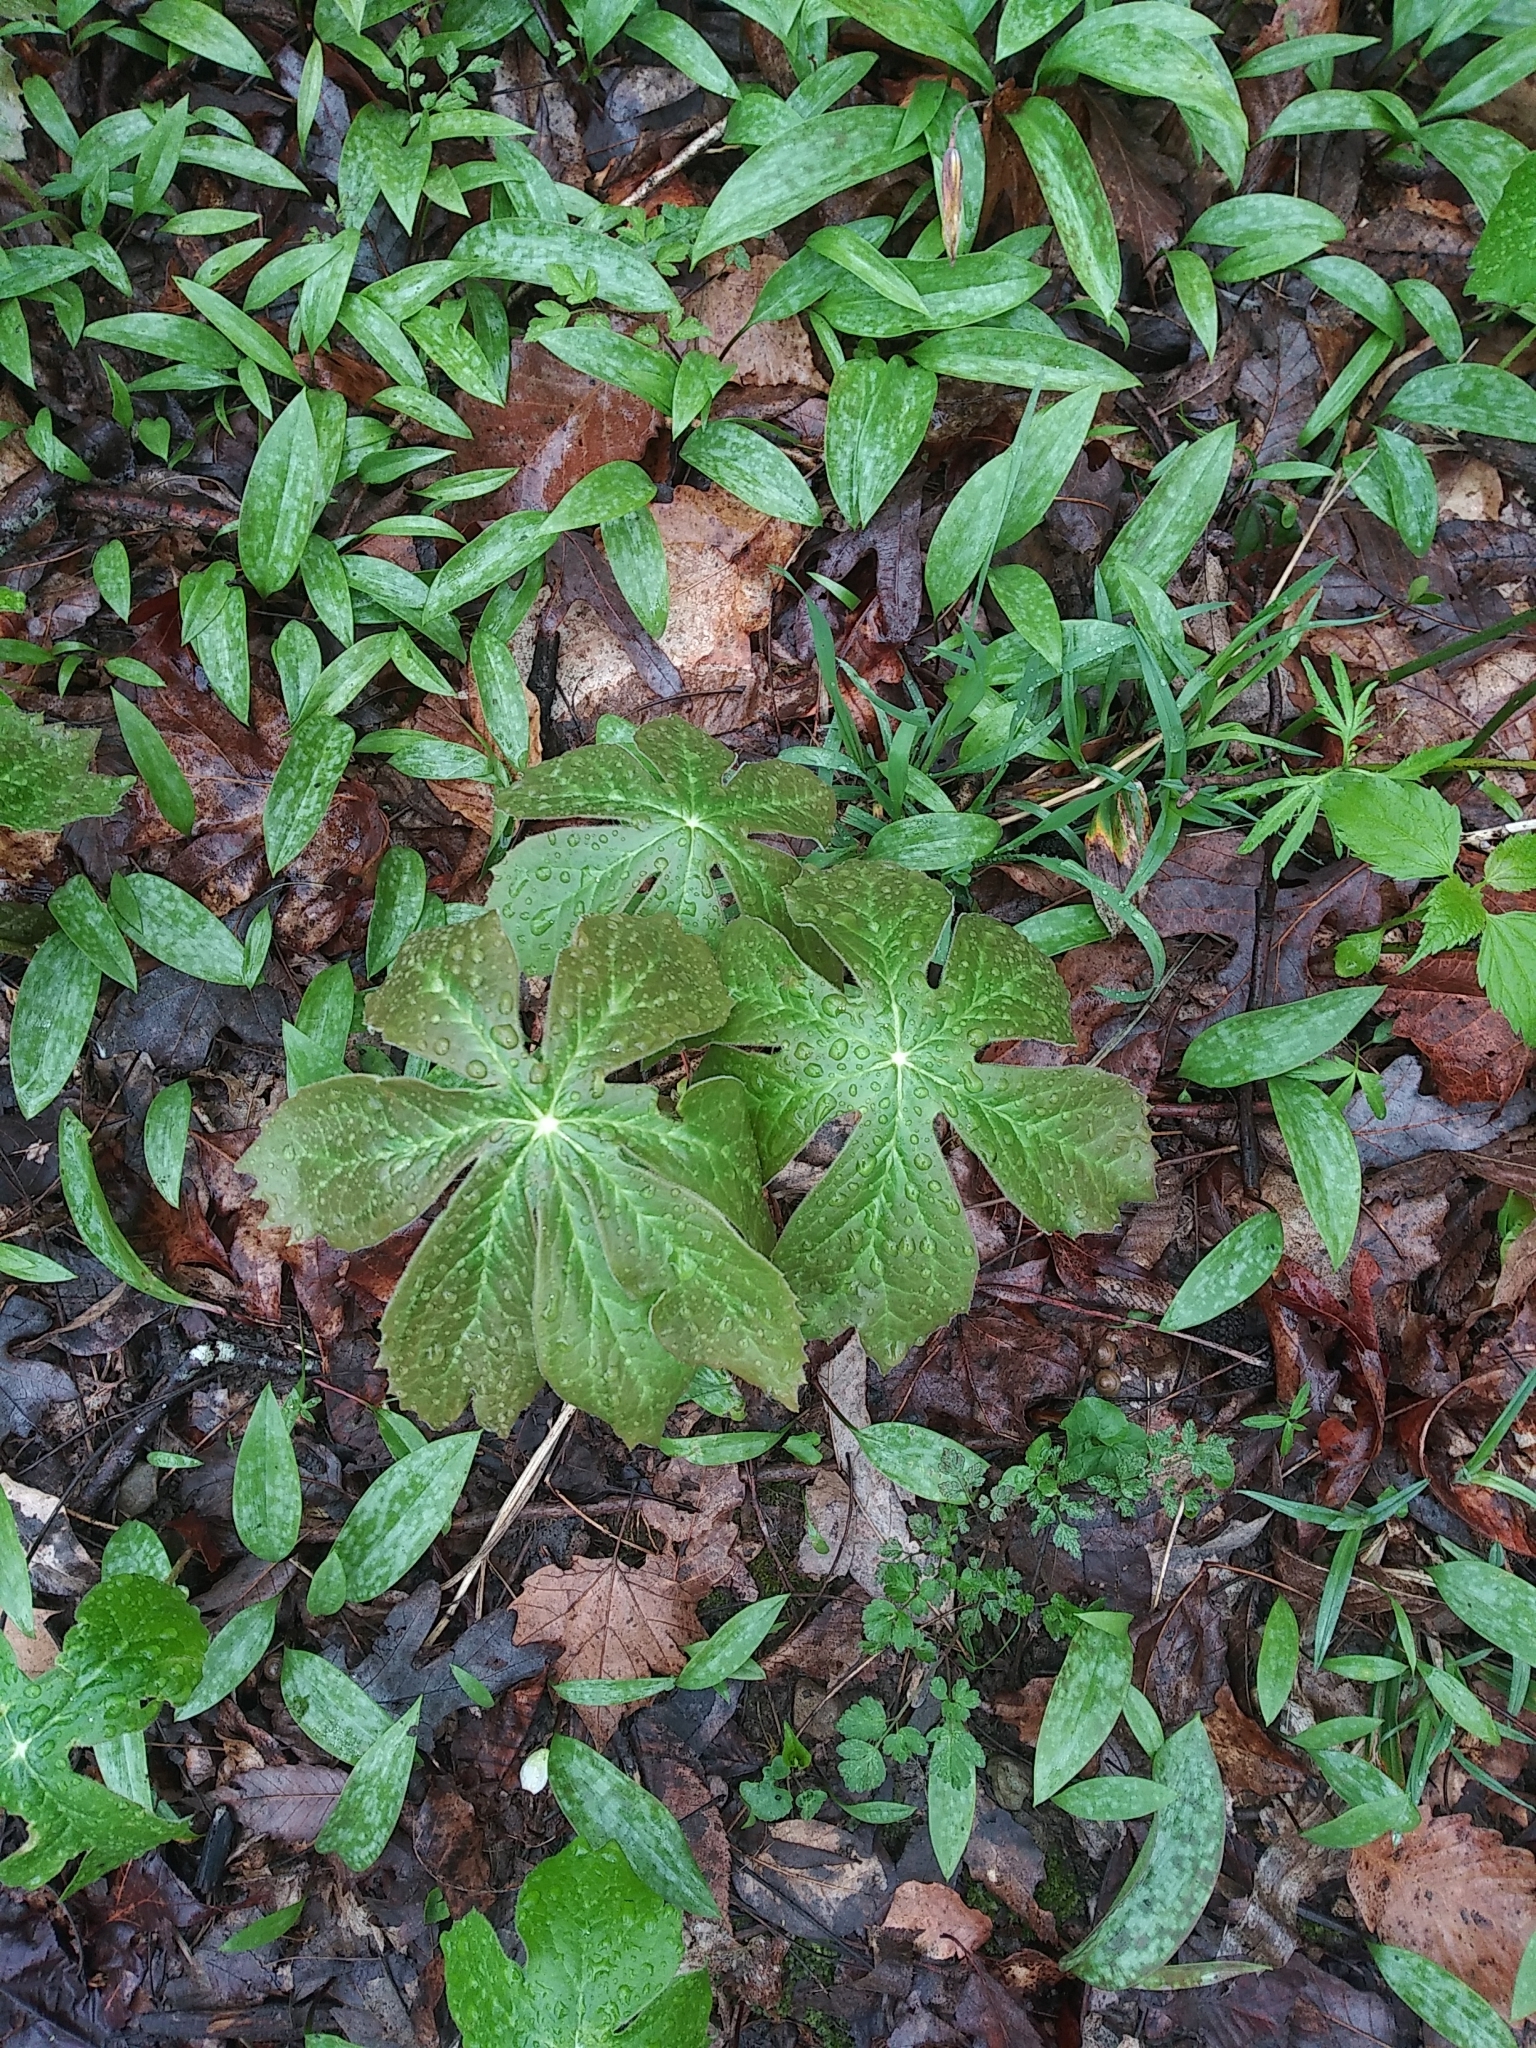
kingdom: Plantae
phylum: Tracheophyta
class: Magnoliopsida
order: Ranunculales
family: Berberidaceae
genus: Podophyllum
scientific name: Podophyllum peltatum
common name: Wild mandrake
